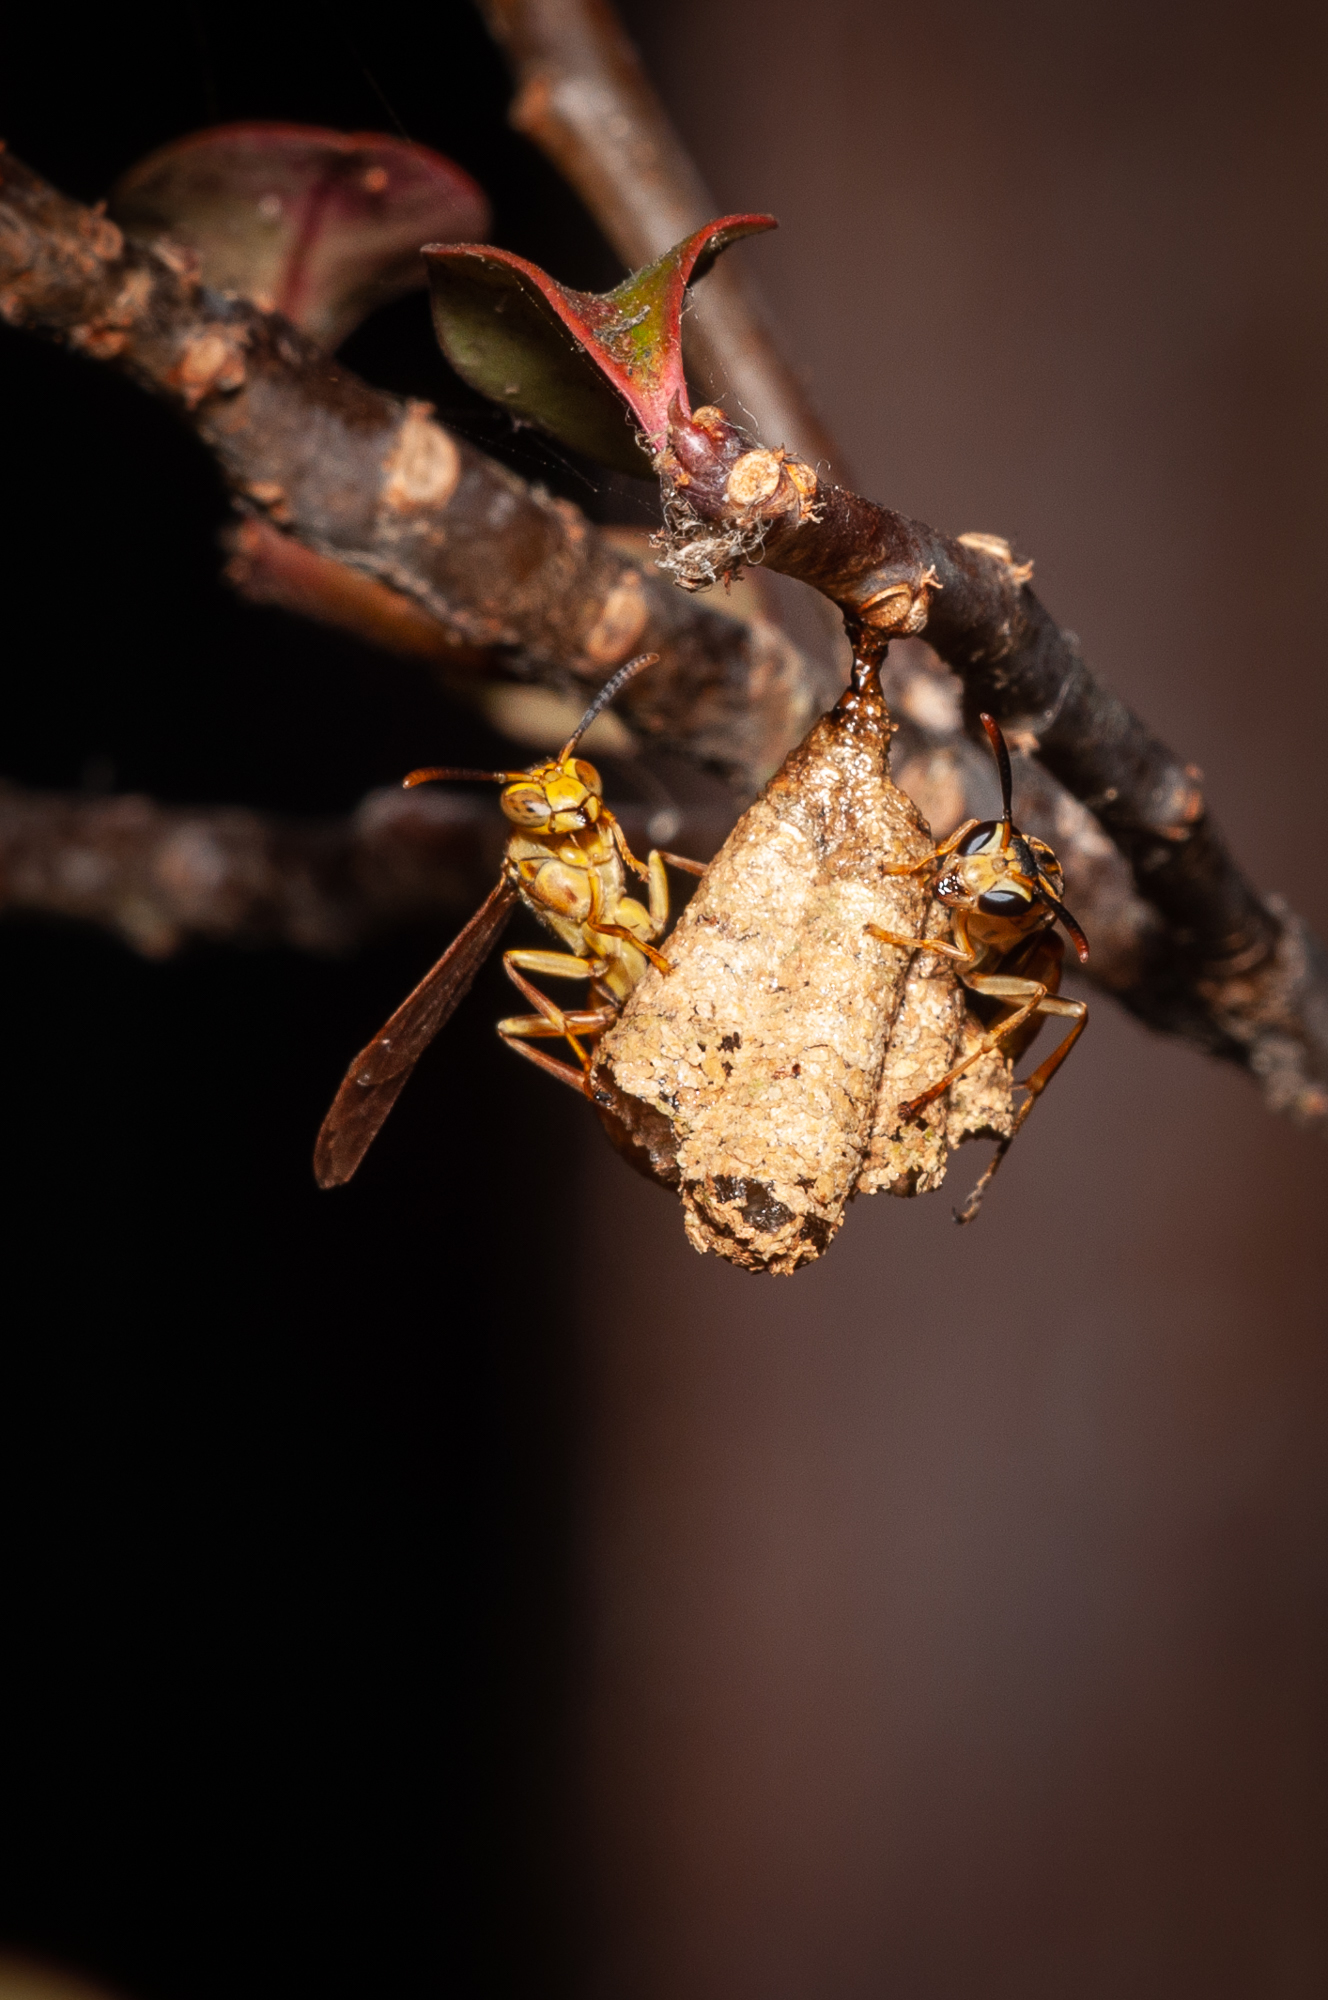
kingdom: Animalia
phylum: Arthropoda
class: Insecta
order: Hymenoptera
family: Vespidae
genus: Mischocyttarus
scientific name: Mischocyttarus angulatus
